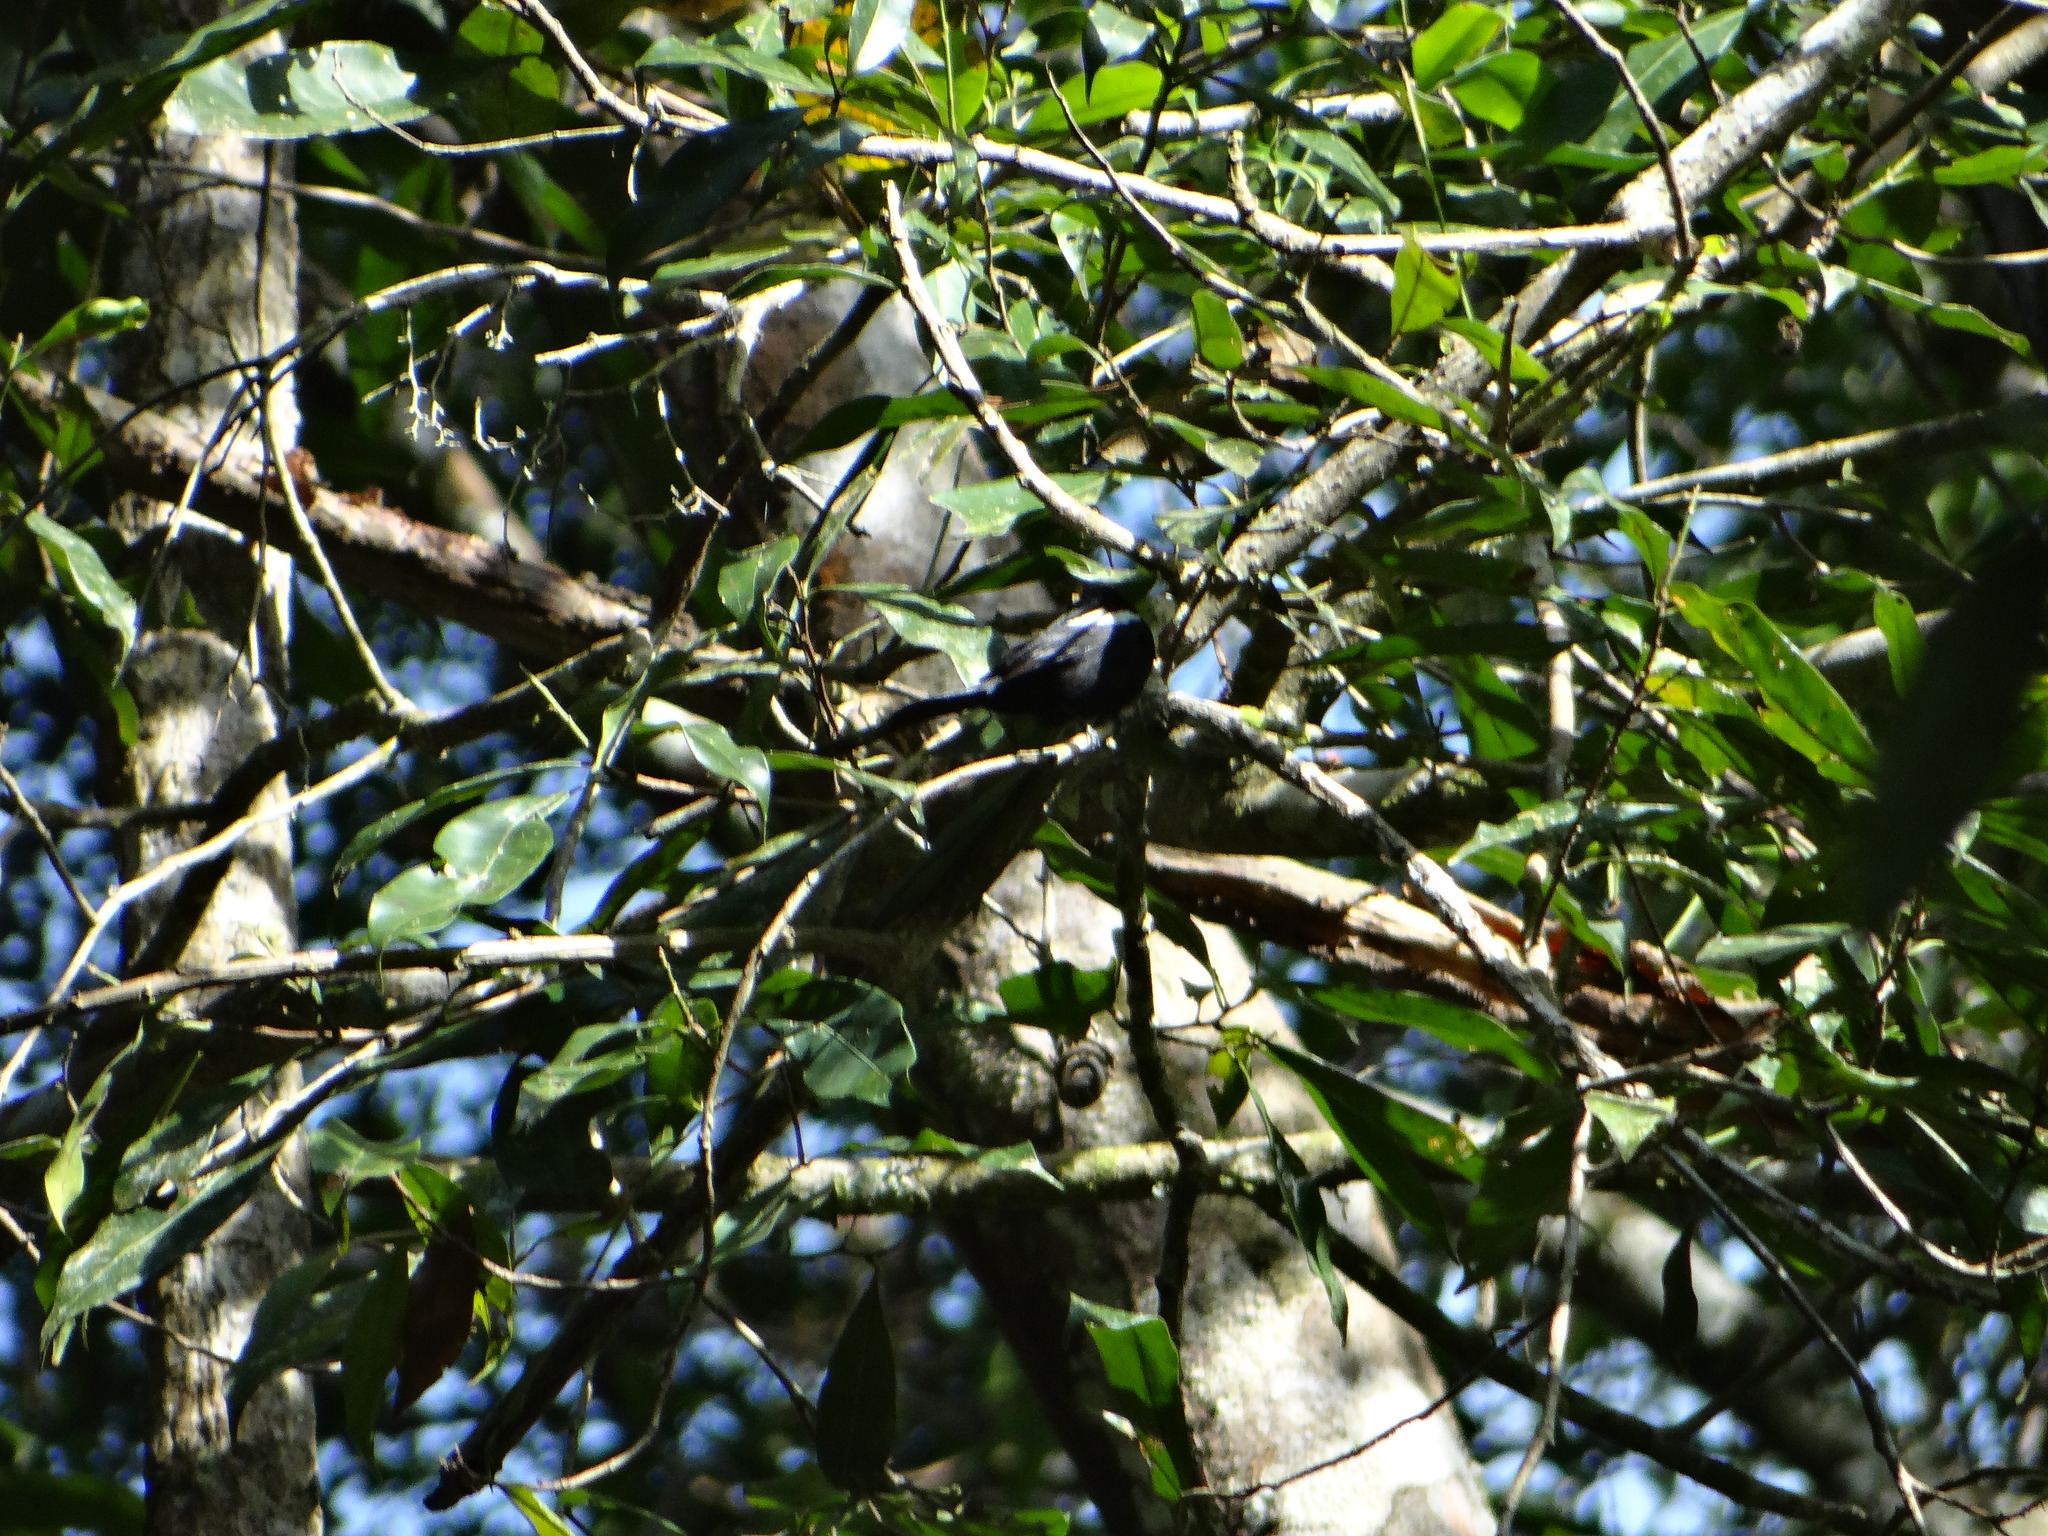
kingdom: Animalia
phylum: Chordata
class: Aves
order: Passeriformes
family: Thraupidae
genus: Loriotus
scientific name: Loriotus luctuosus
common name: White-shouldered tanager
